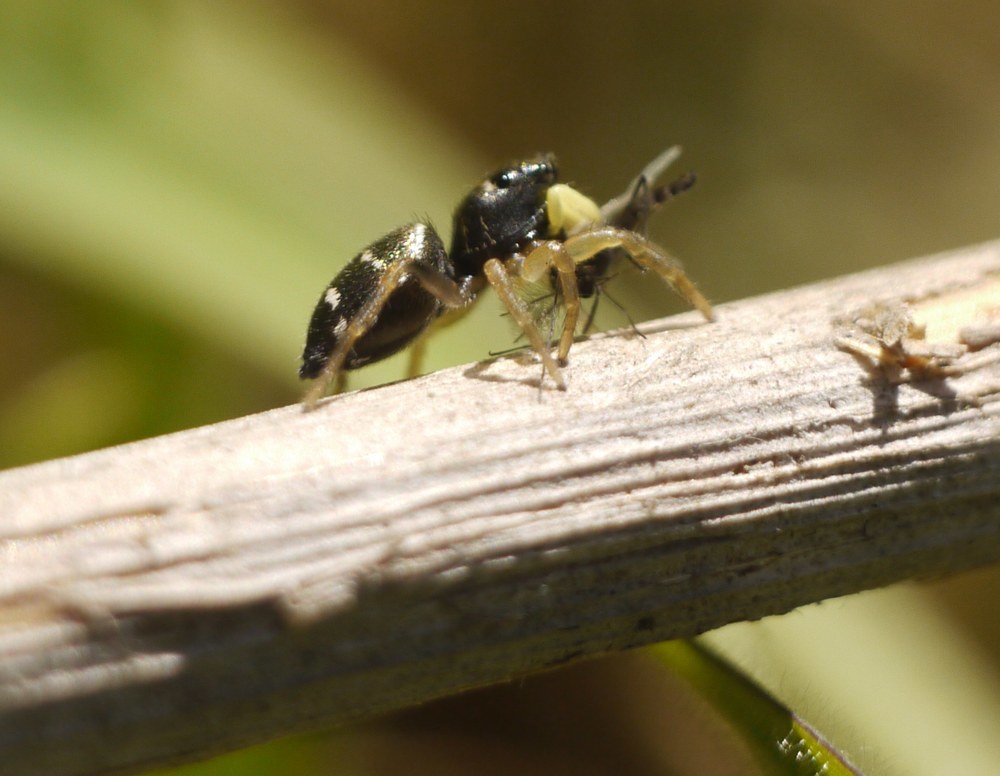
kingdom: Animalia
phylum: Arthropoda
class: Arachnida
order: Araneae
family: Salticidae
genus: Heliophanus
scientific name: Heliophanus cupreus
